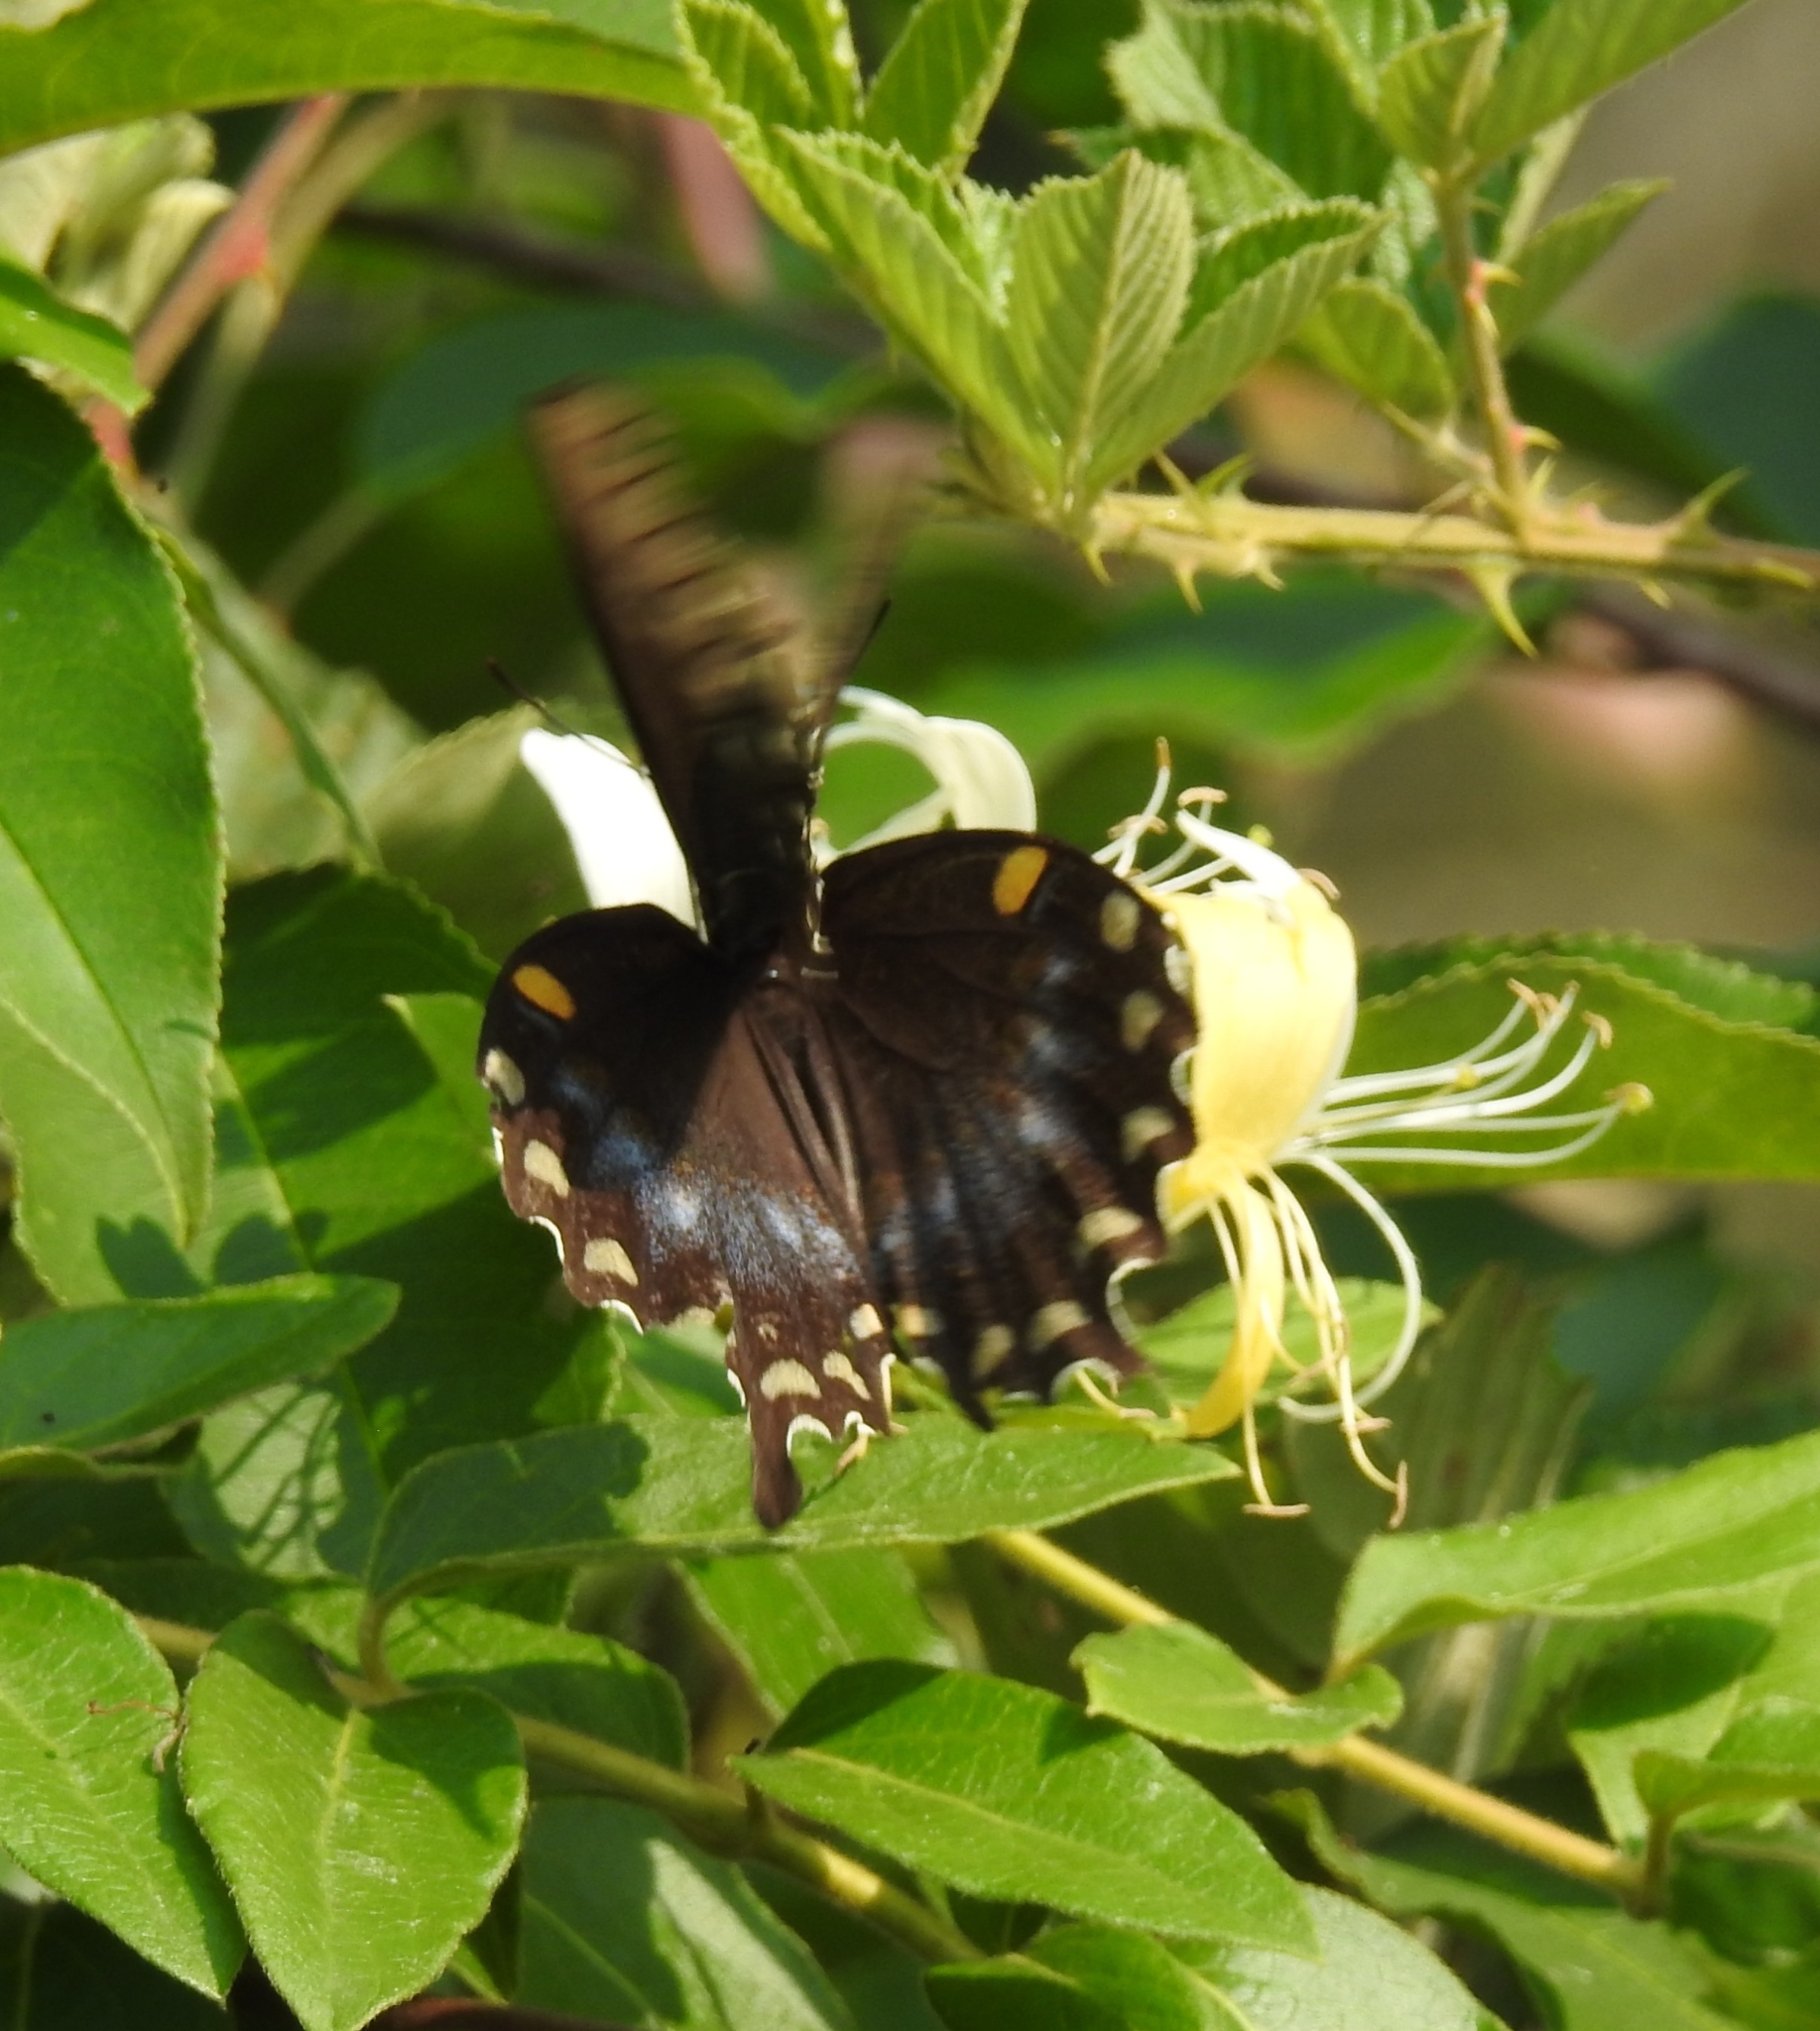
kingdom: Animalia
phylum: Arthropoda
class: Insecta
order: Lepidoptera
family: Papilionidae
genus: Papilio
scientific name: Papilio troilus
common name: Spicebush swallowtail
